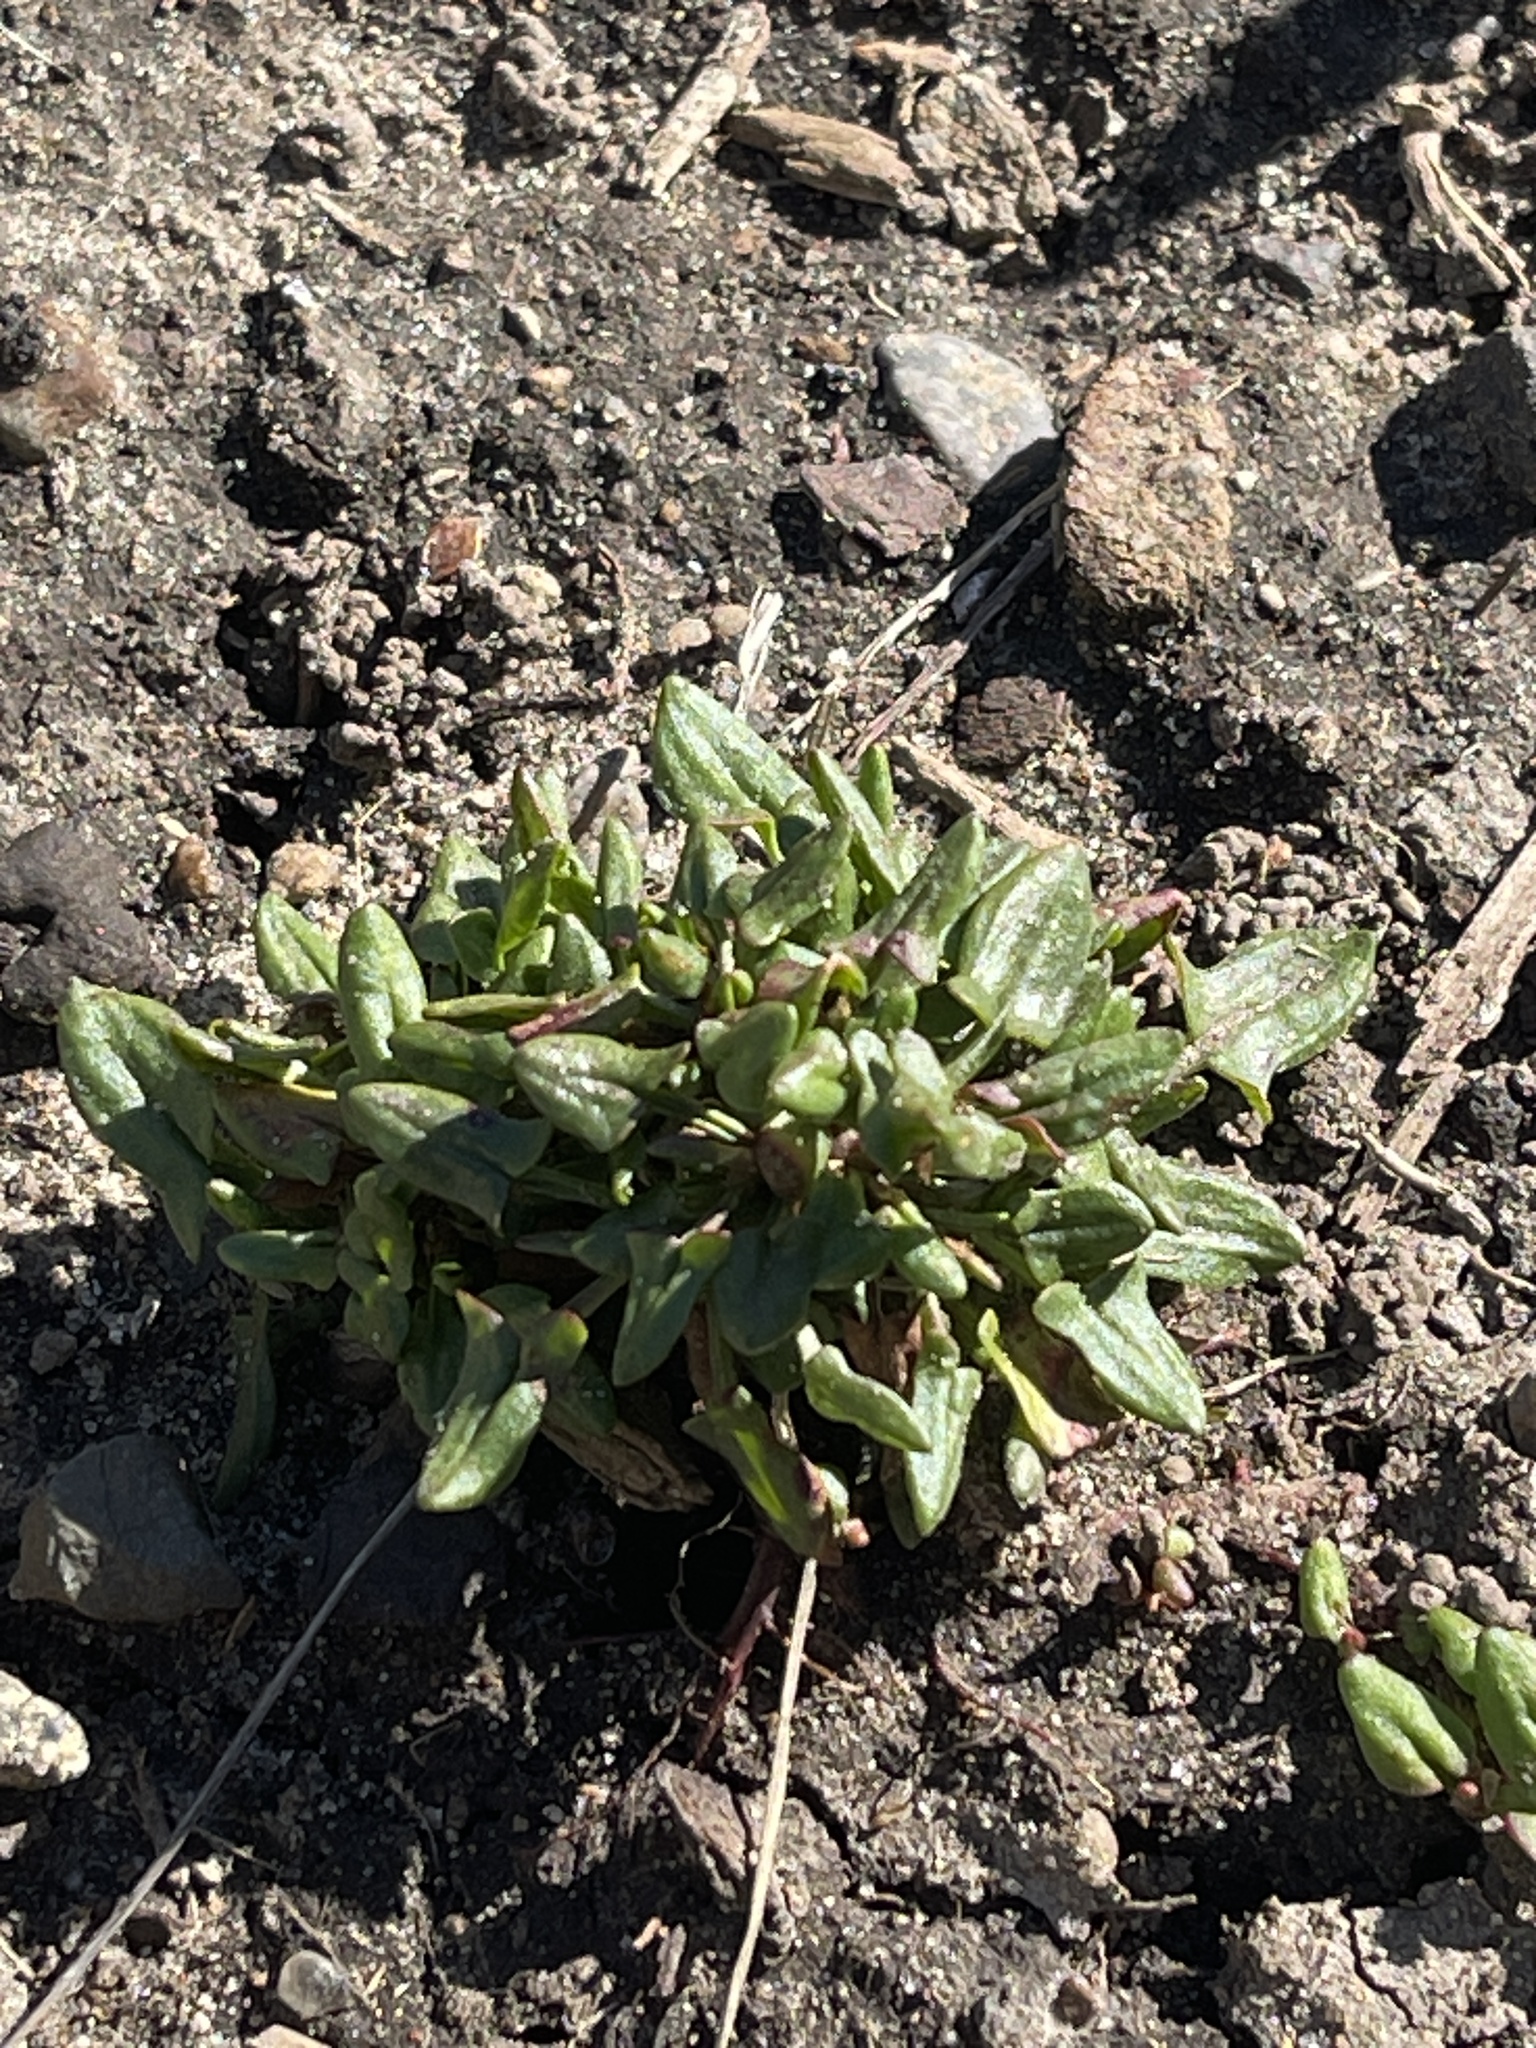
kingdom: Plantae
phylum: Tracheophyta
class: Magnoliopsida
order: Caryophyllales
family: Polygonaceae
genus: Rumex
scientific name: Rumex acetosella
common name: Common sheep sorrel
